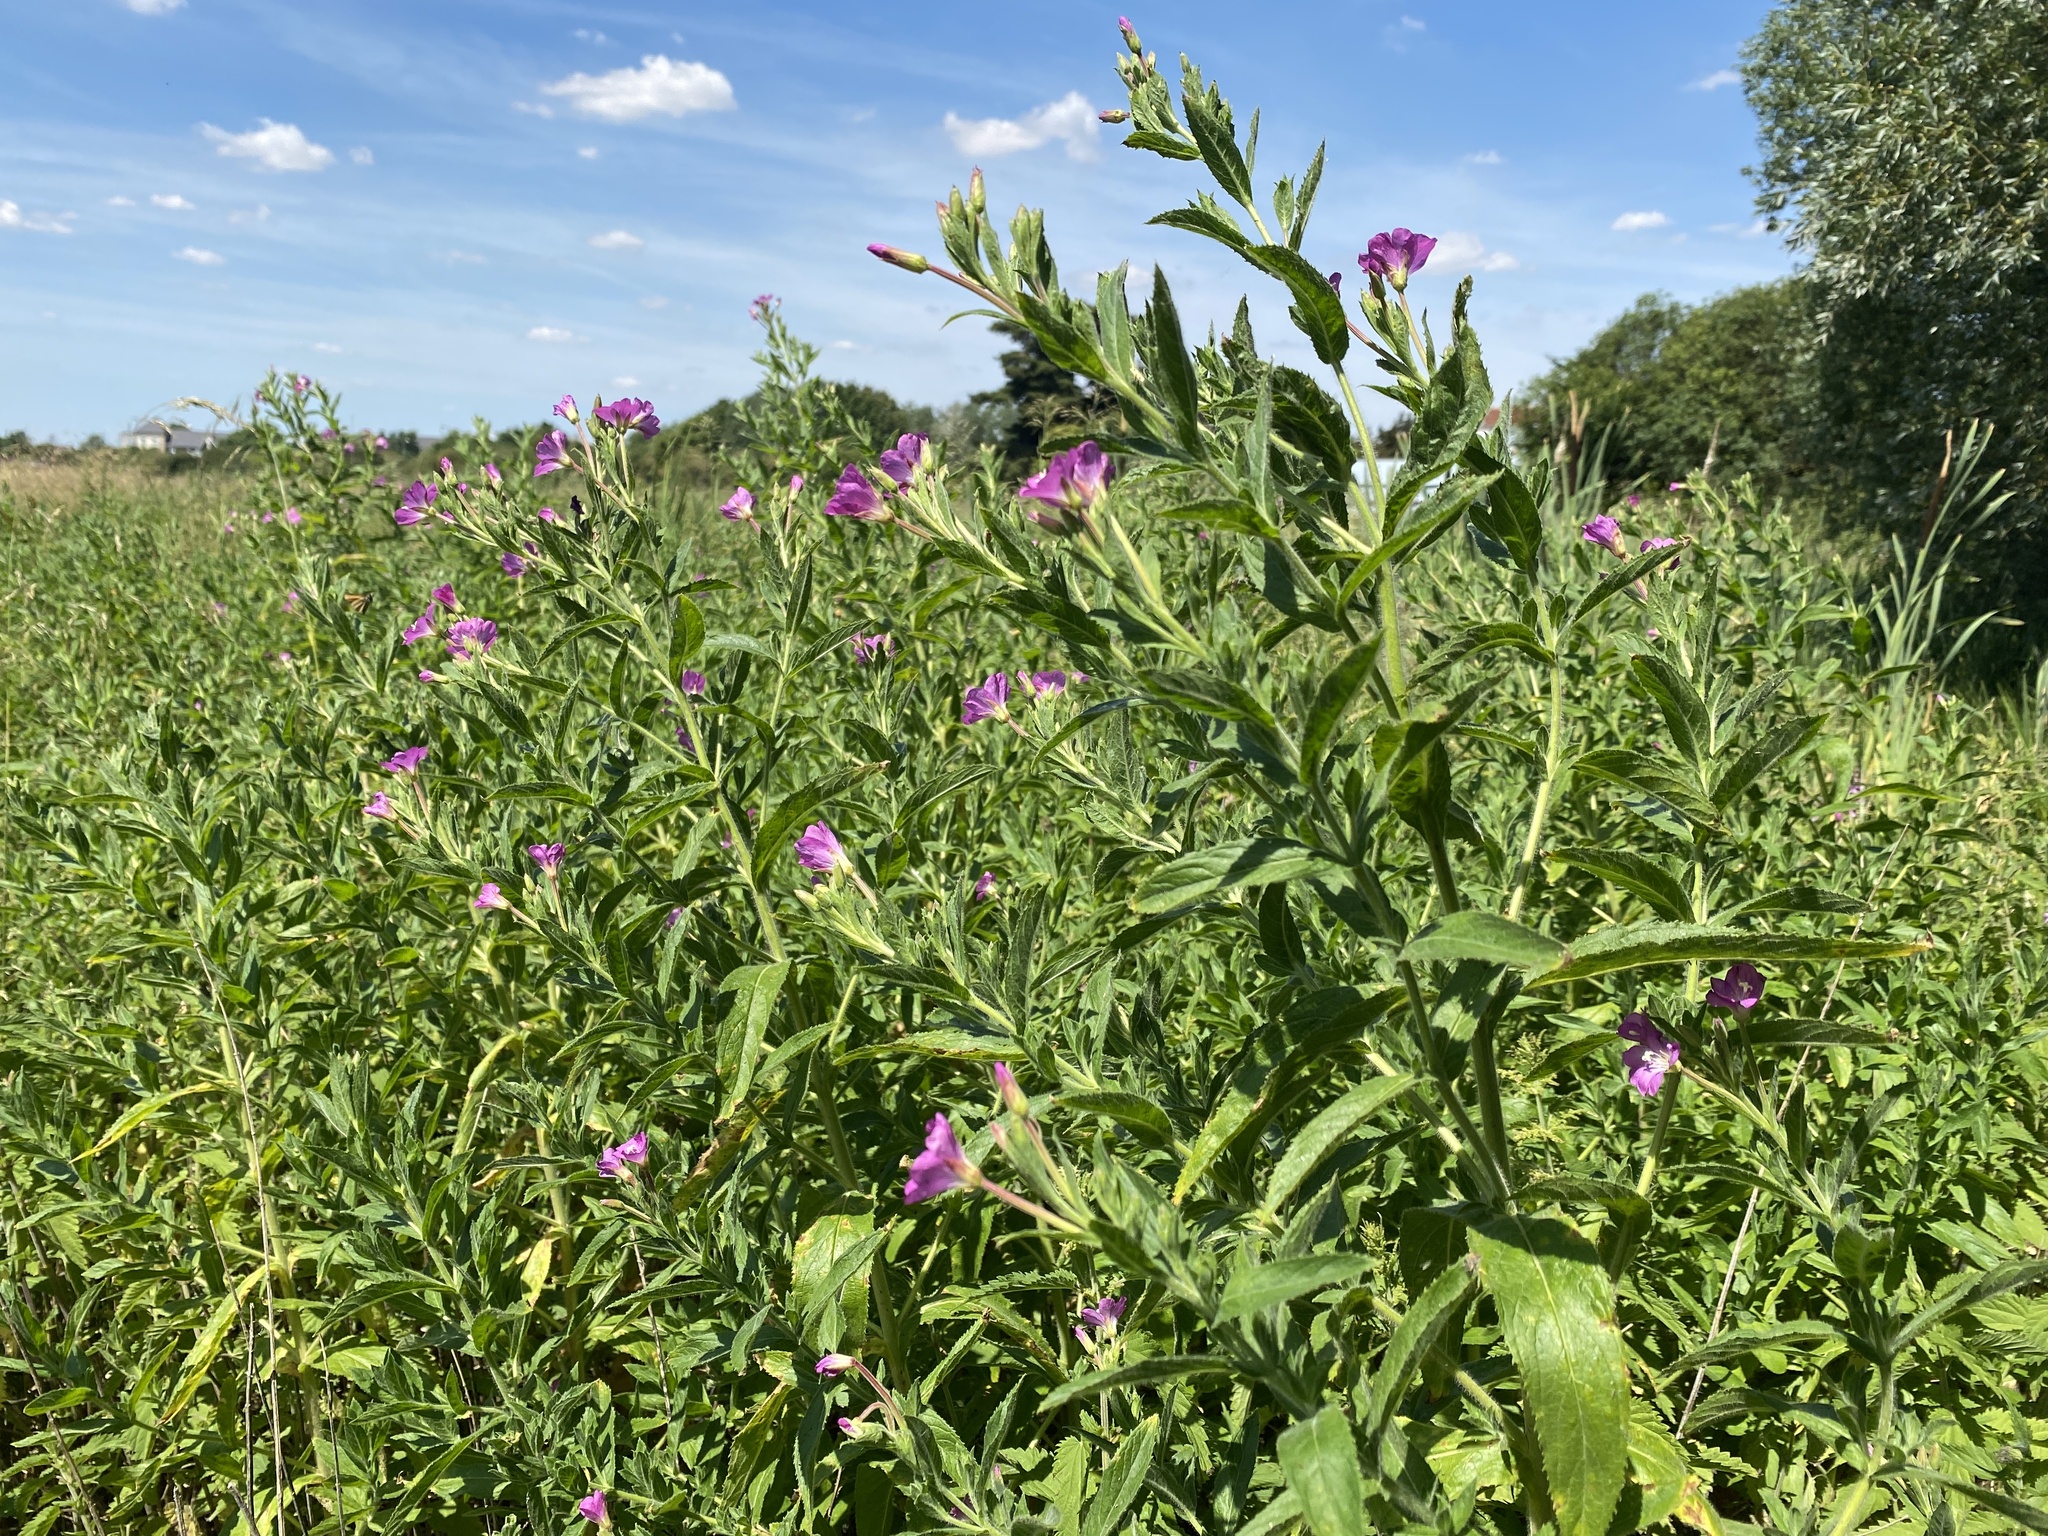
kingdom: Plantae
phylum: Tracheophyta
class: Magnoliopsida
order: Myrtales
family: Onagraceae
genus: Epilobium
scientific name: Epilobium hirsutum
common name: Great willowherb
